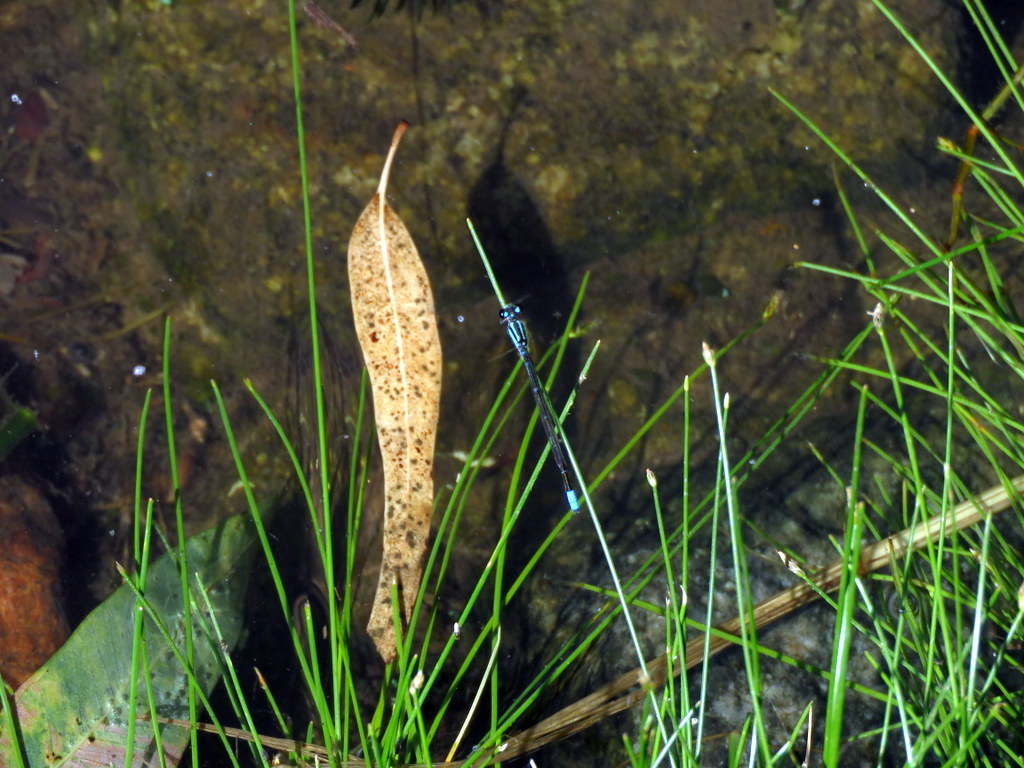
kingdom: Animalia
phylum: Arthropoda
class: Insecta
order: Odonata
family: Coenagrionidae
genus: Homeoura
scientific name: Homeoura chelifera
